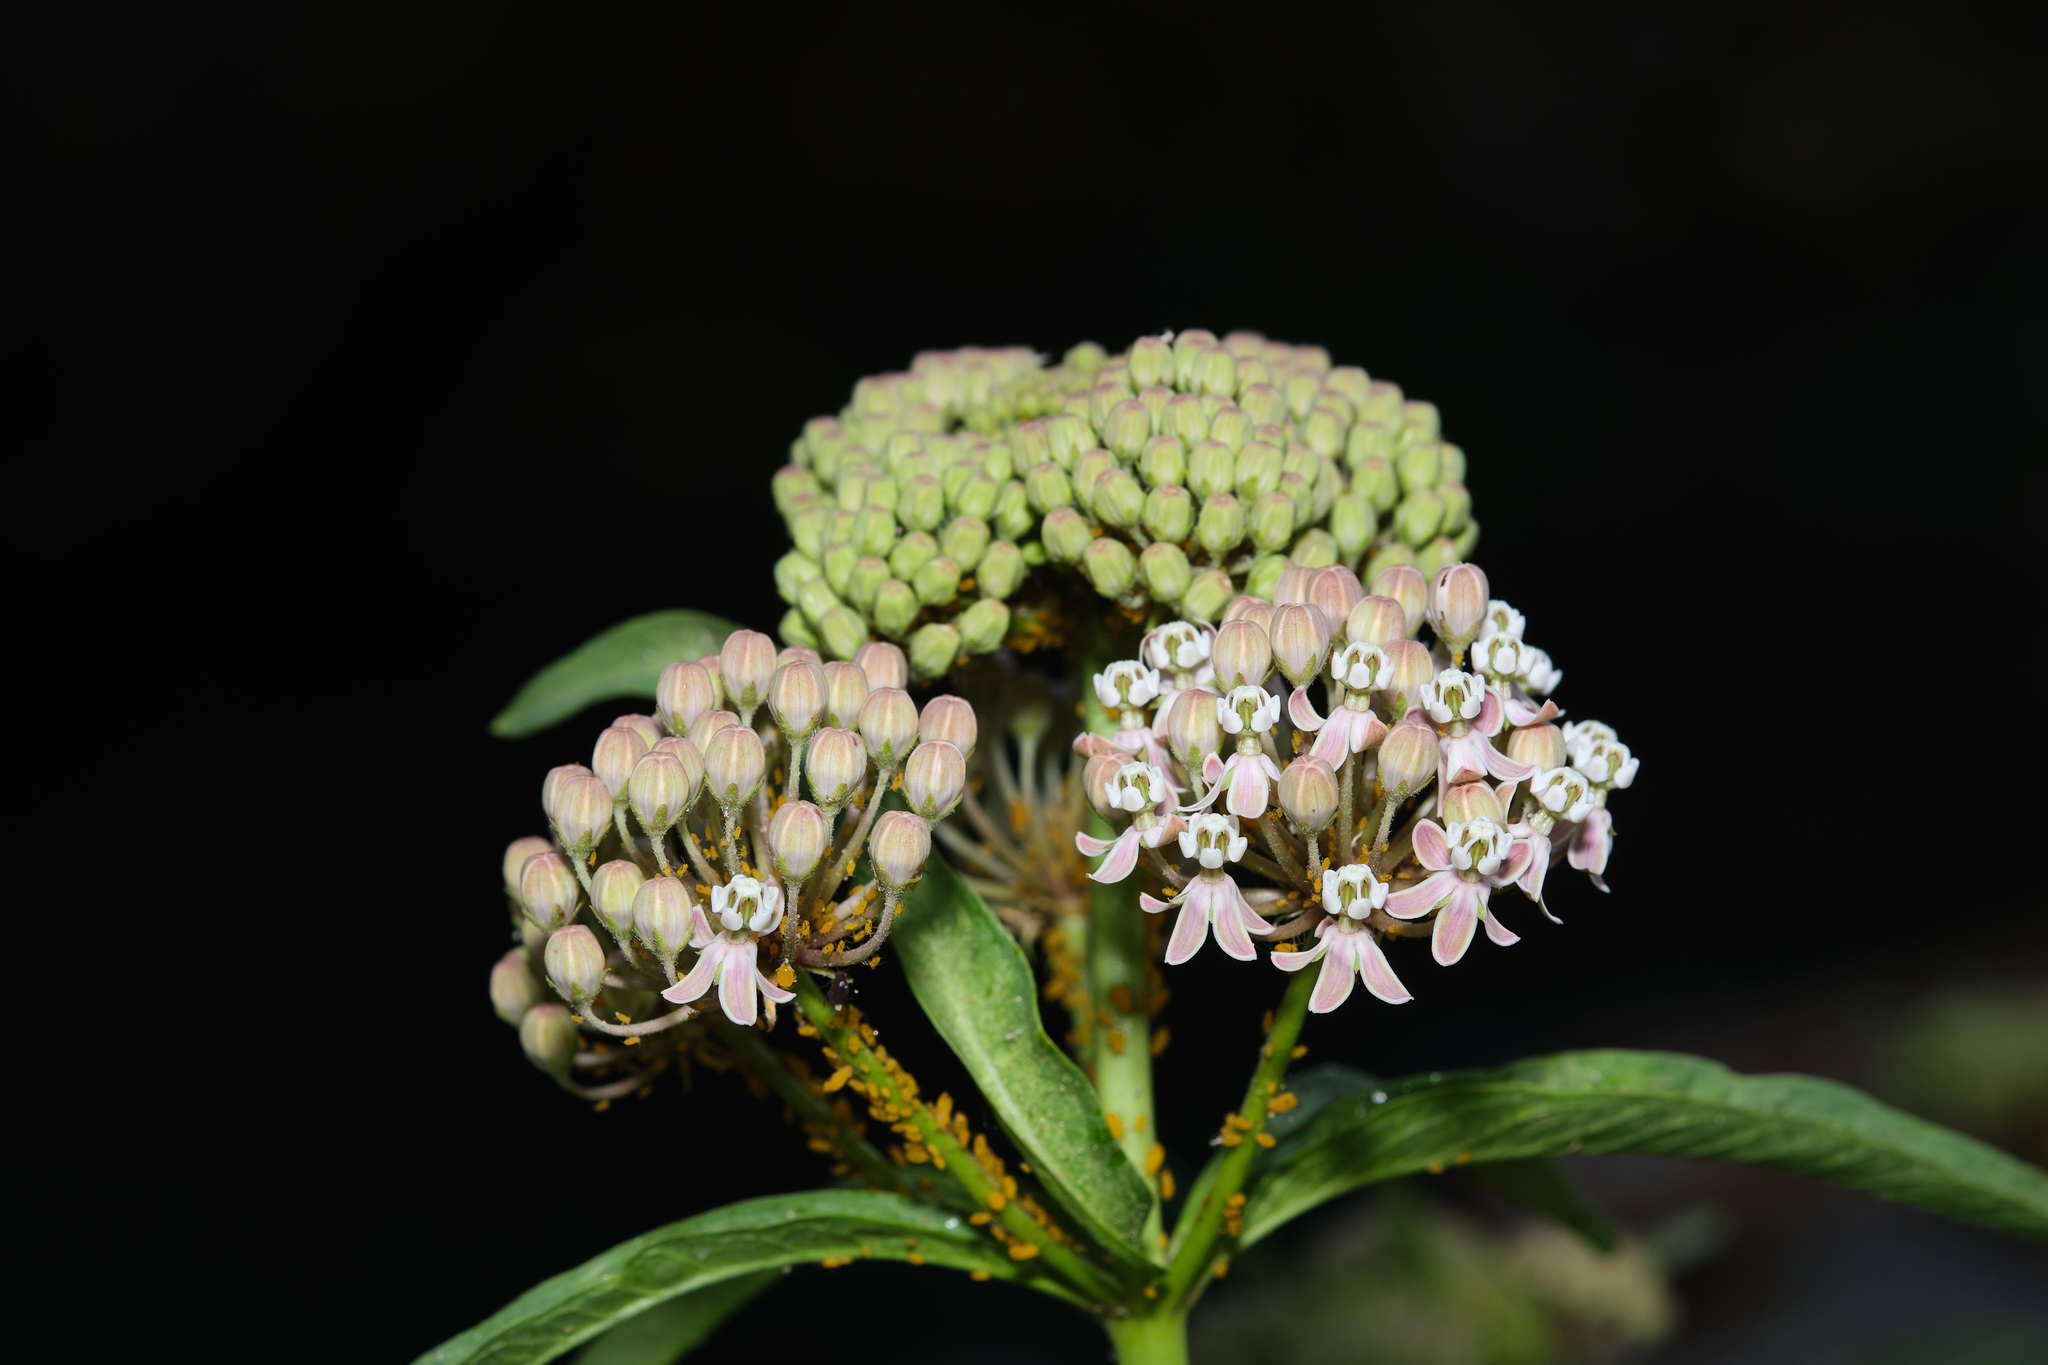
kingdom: Plantae
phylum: Tracheophyta
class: Magnoliopsida
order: Gentianales
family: Apocynaceae
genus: Asclepias
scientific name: Asclepias fascicularis
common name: Mexican milkweed
